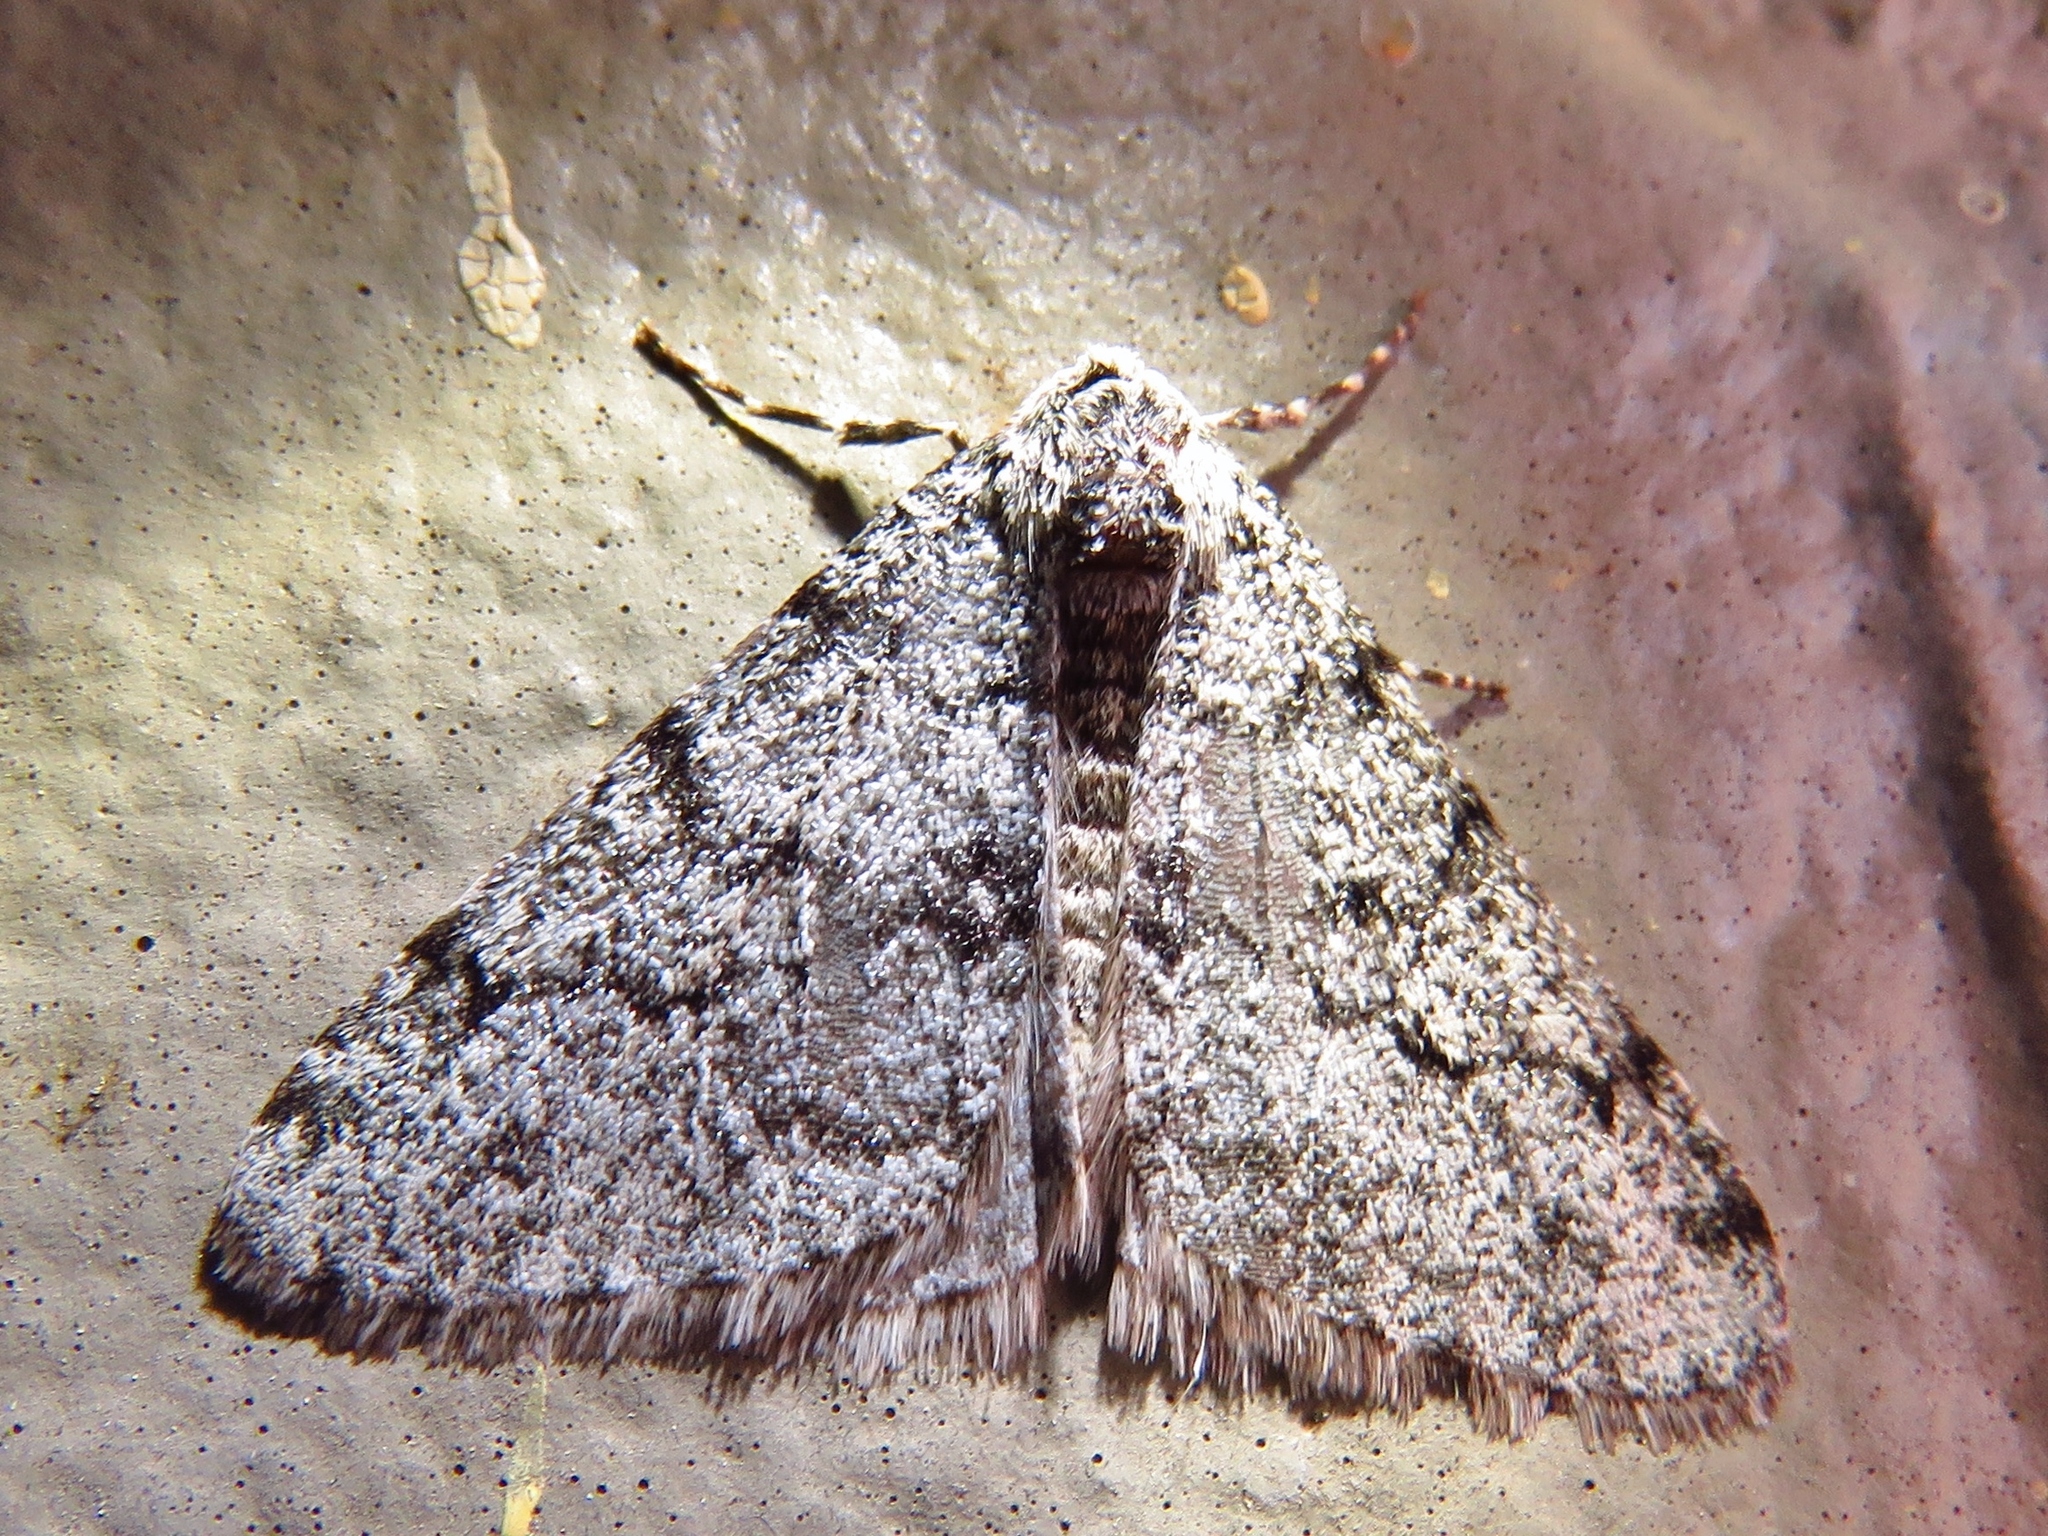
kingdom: Animalia
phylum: Arthropoda
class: Insecta
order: Lepidoptera
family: Geometridae
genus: Phigalia
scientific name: Phigalia strigataria
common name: Small phigalia
